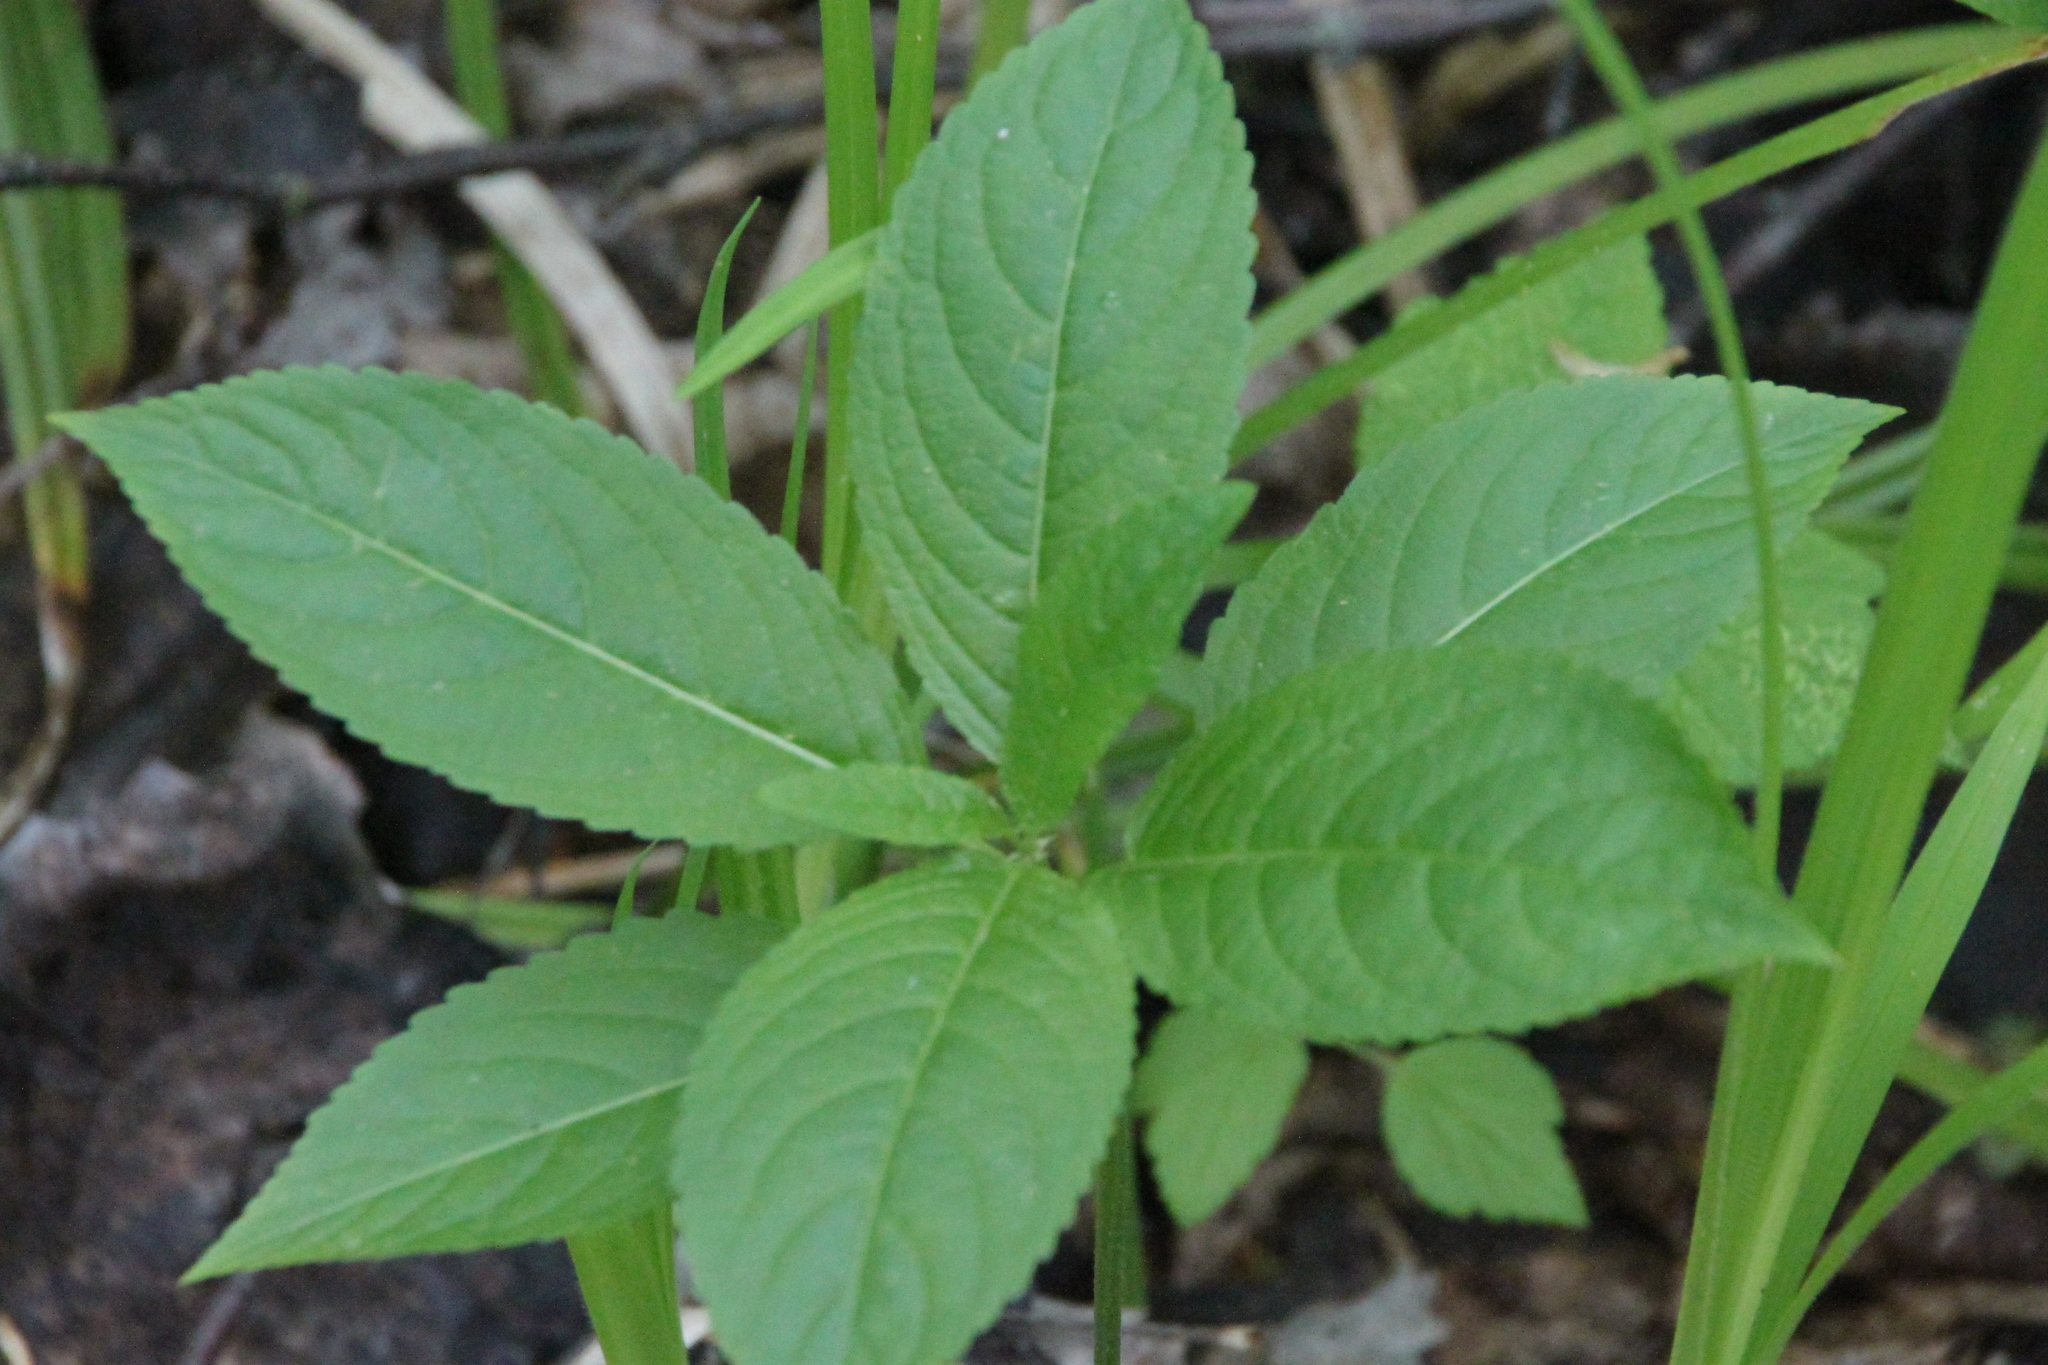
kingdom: Plantae
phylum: Tracheophyta
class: Magnoliopsida
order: Malpighiales
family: Euphorbiaceae
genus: Mercurialis
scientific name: Mercurialis perennis
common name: Dog mercury
